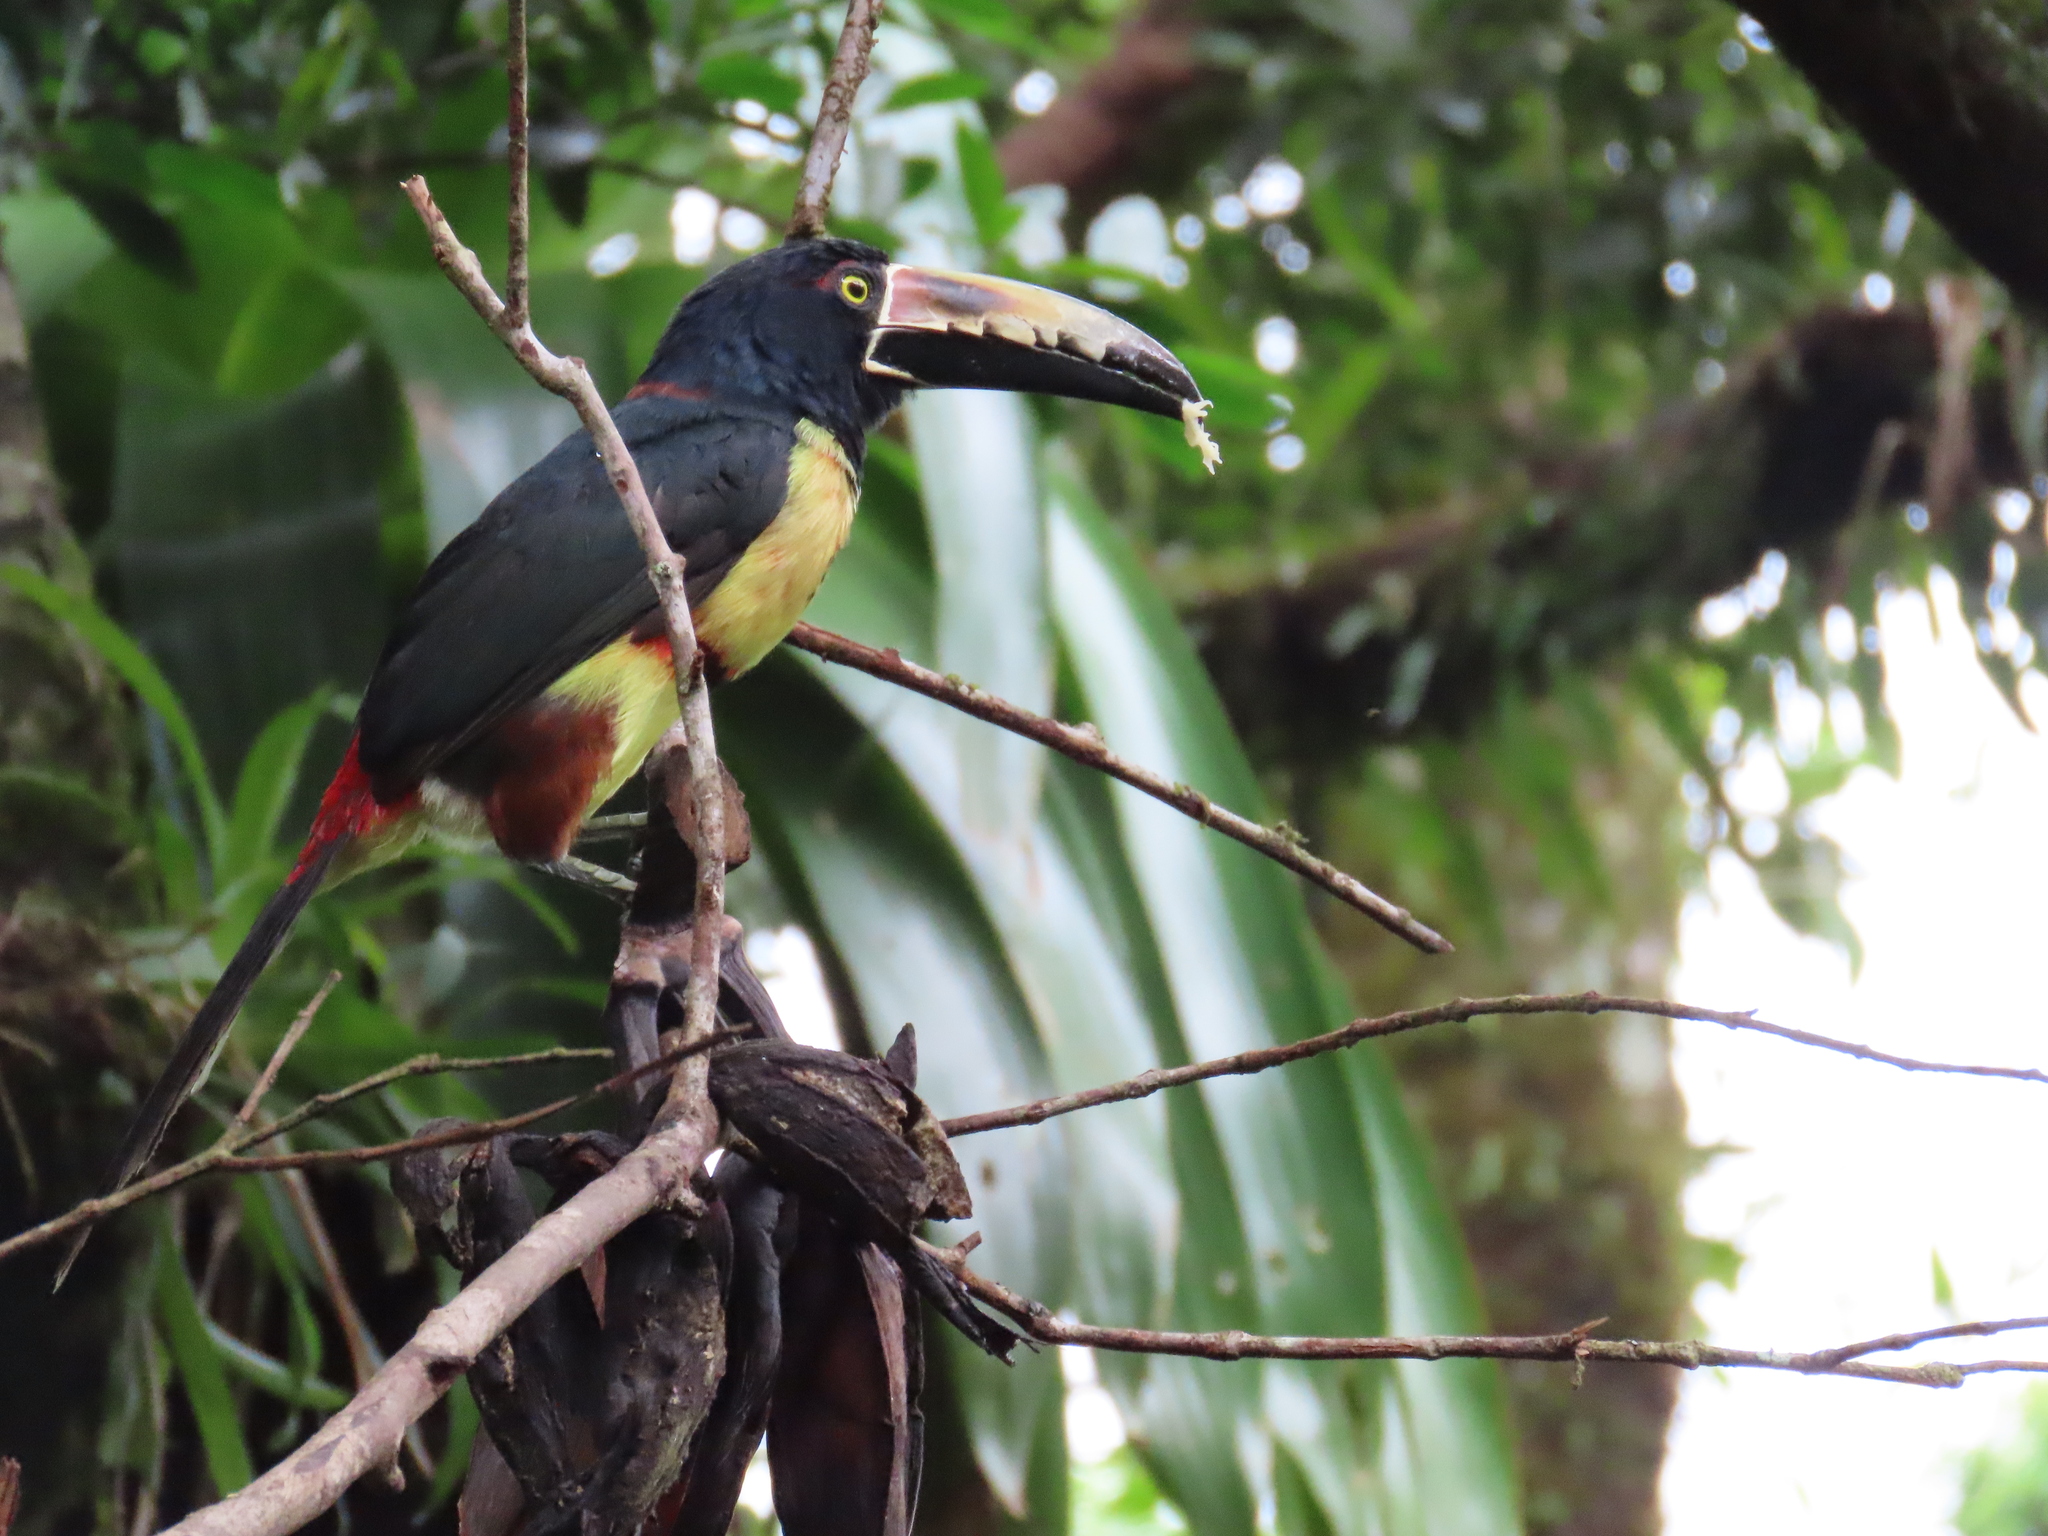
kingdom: Animalia
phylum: Chordata
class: Aves
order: Piciformes
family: Ramphastidae
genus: Pteroglossus
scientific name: Pteroglossus torquatus
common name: Collared aracari
